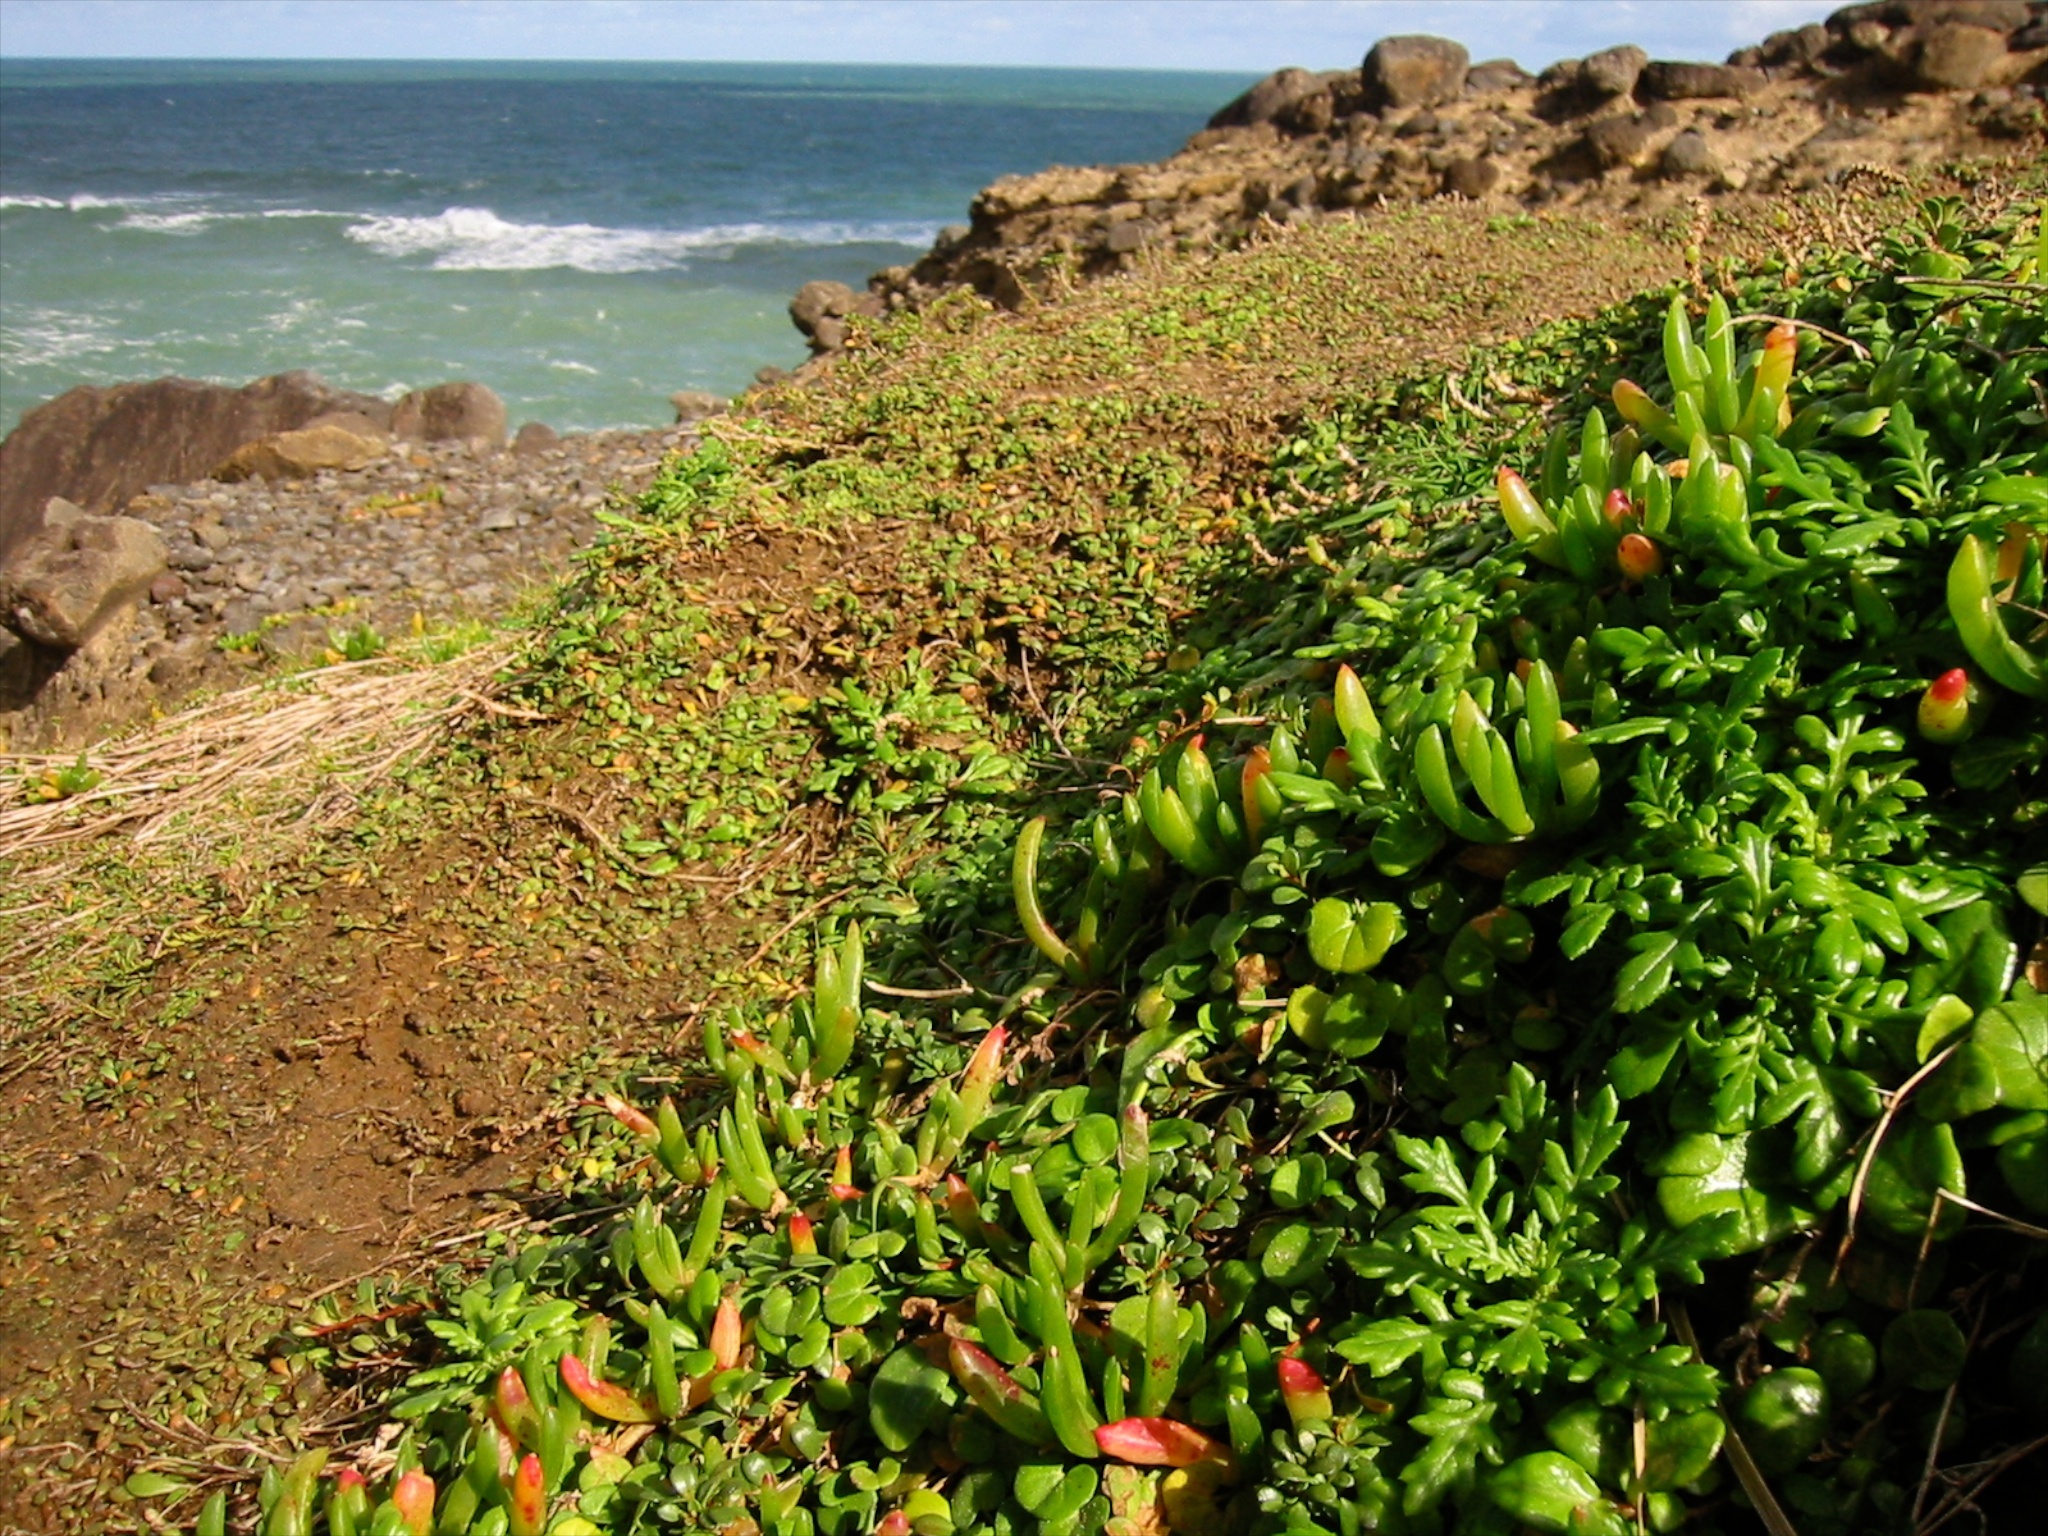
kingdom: Plantae
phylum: Tracheophyta
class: Magnoliopsida
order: Asterales
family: Asteraceae
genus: Senecio
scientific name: Senecio lautus
